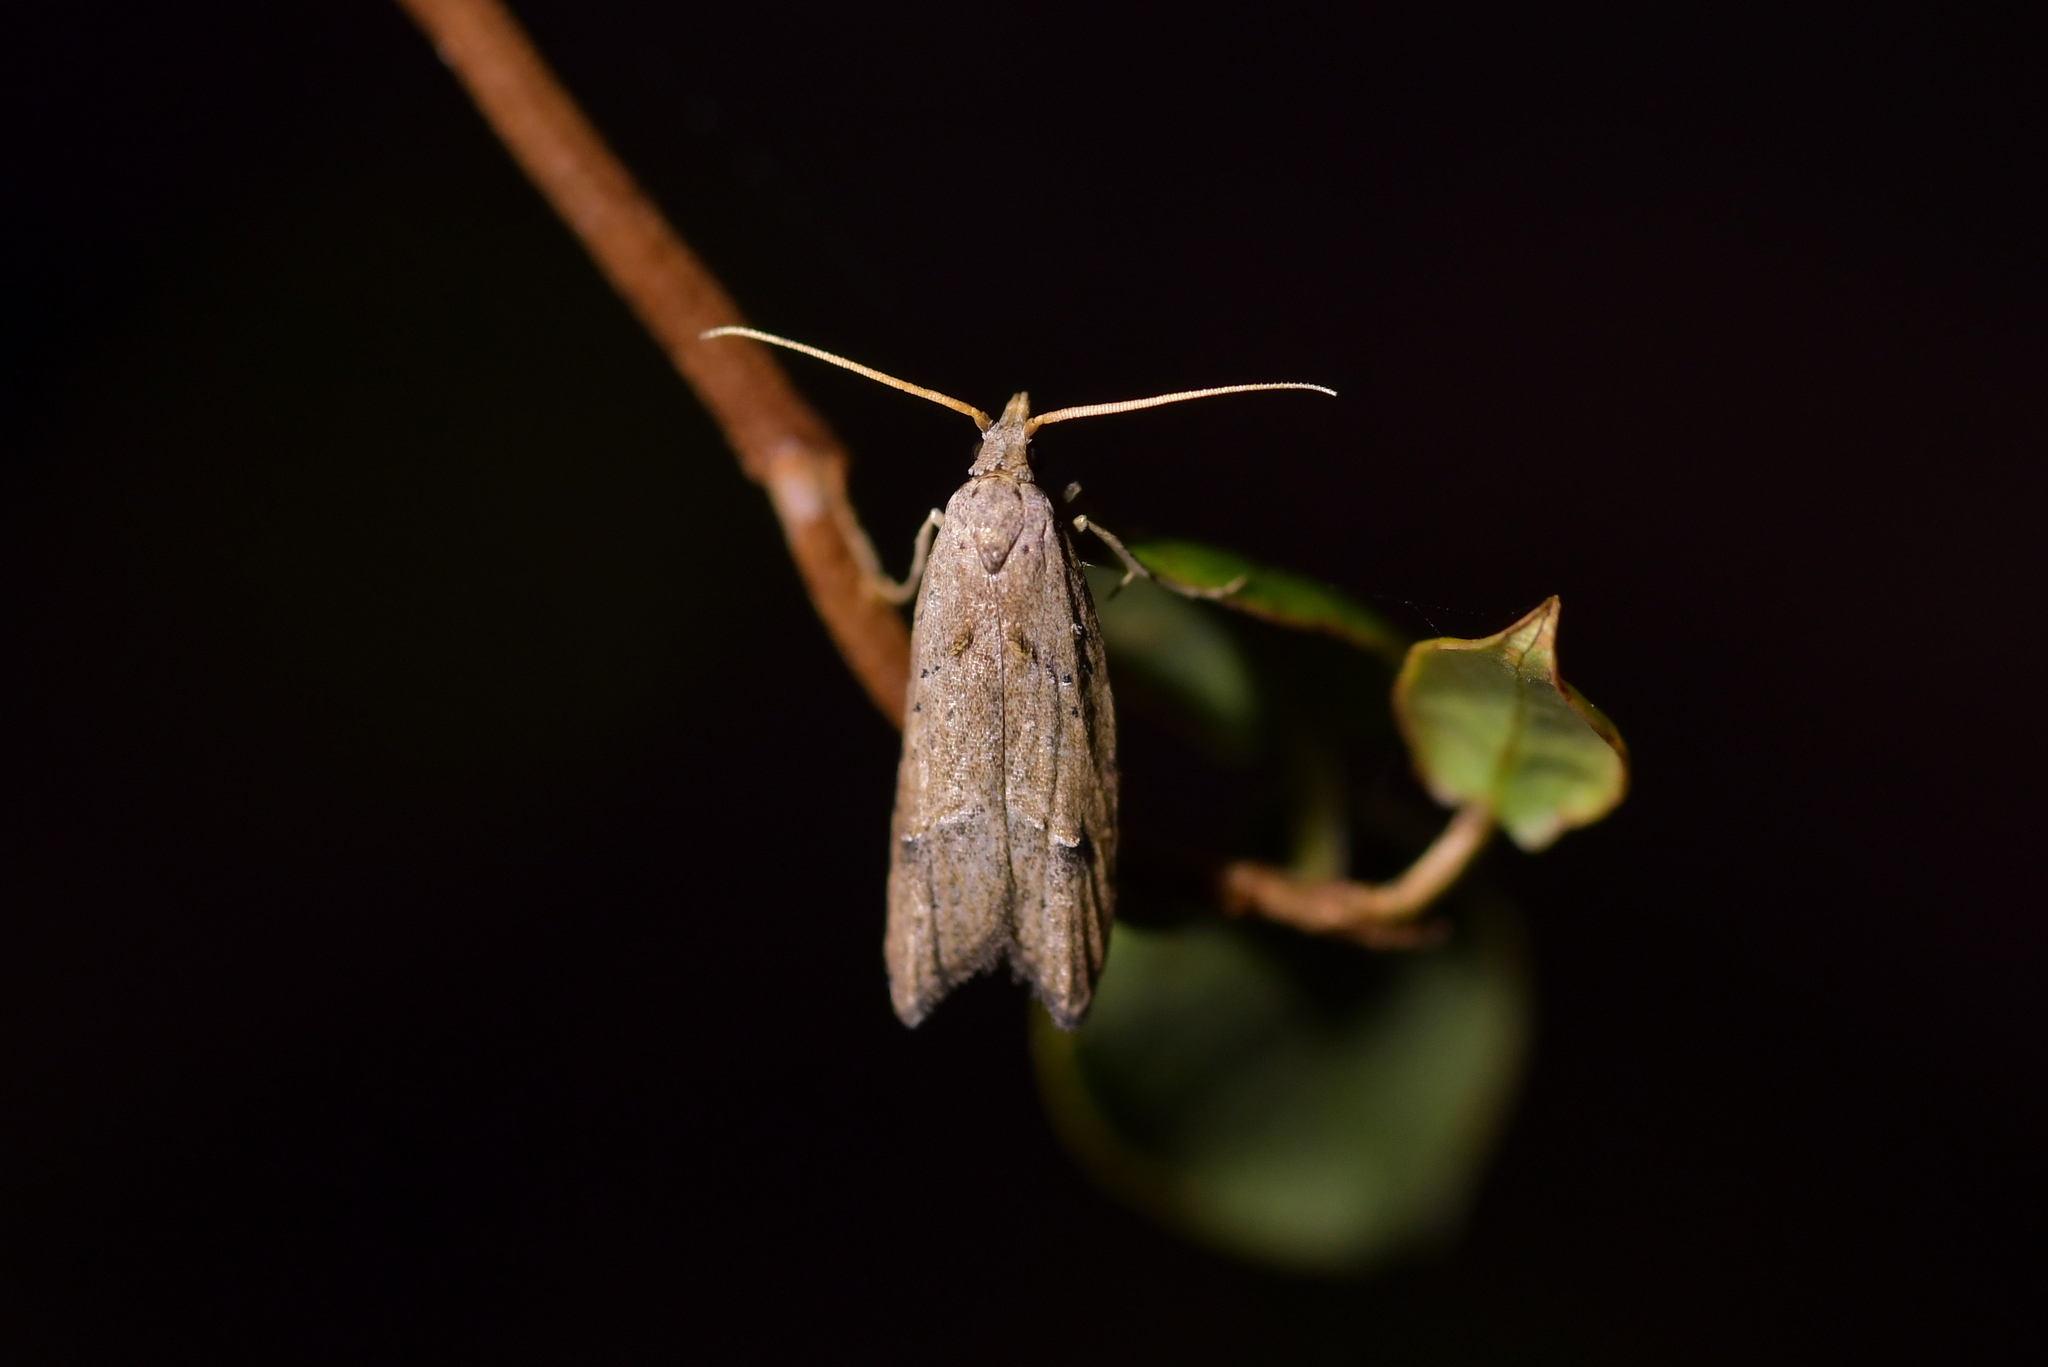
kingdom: Animalia
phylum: Arthropoda
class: Insecta
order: Lepidoptera
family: Carposinidae
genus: Carposina
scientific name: Carposina rubophaga
